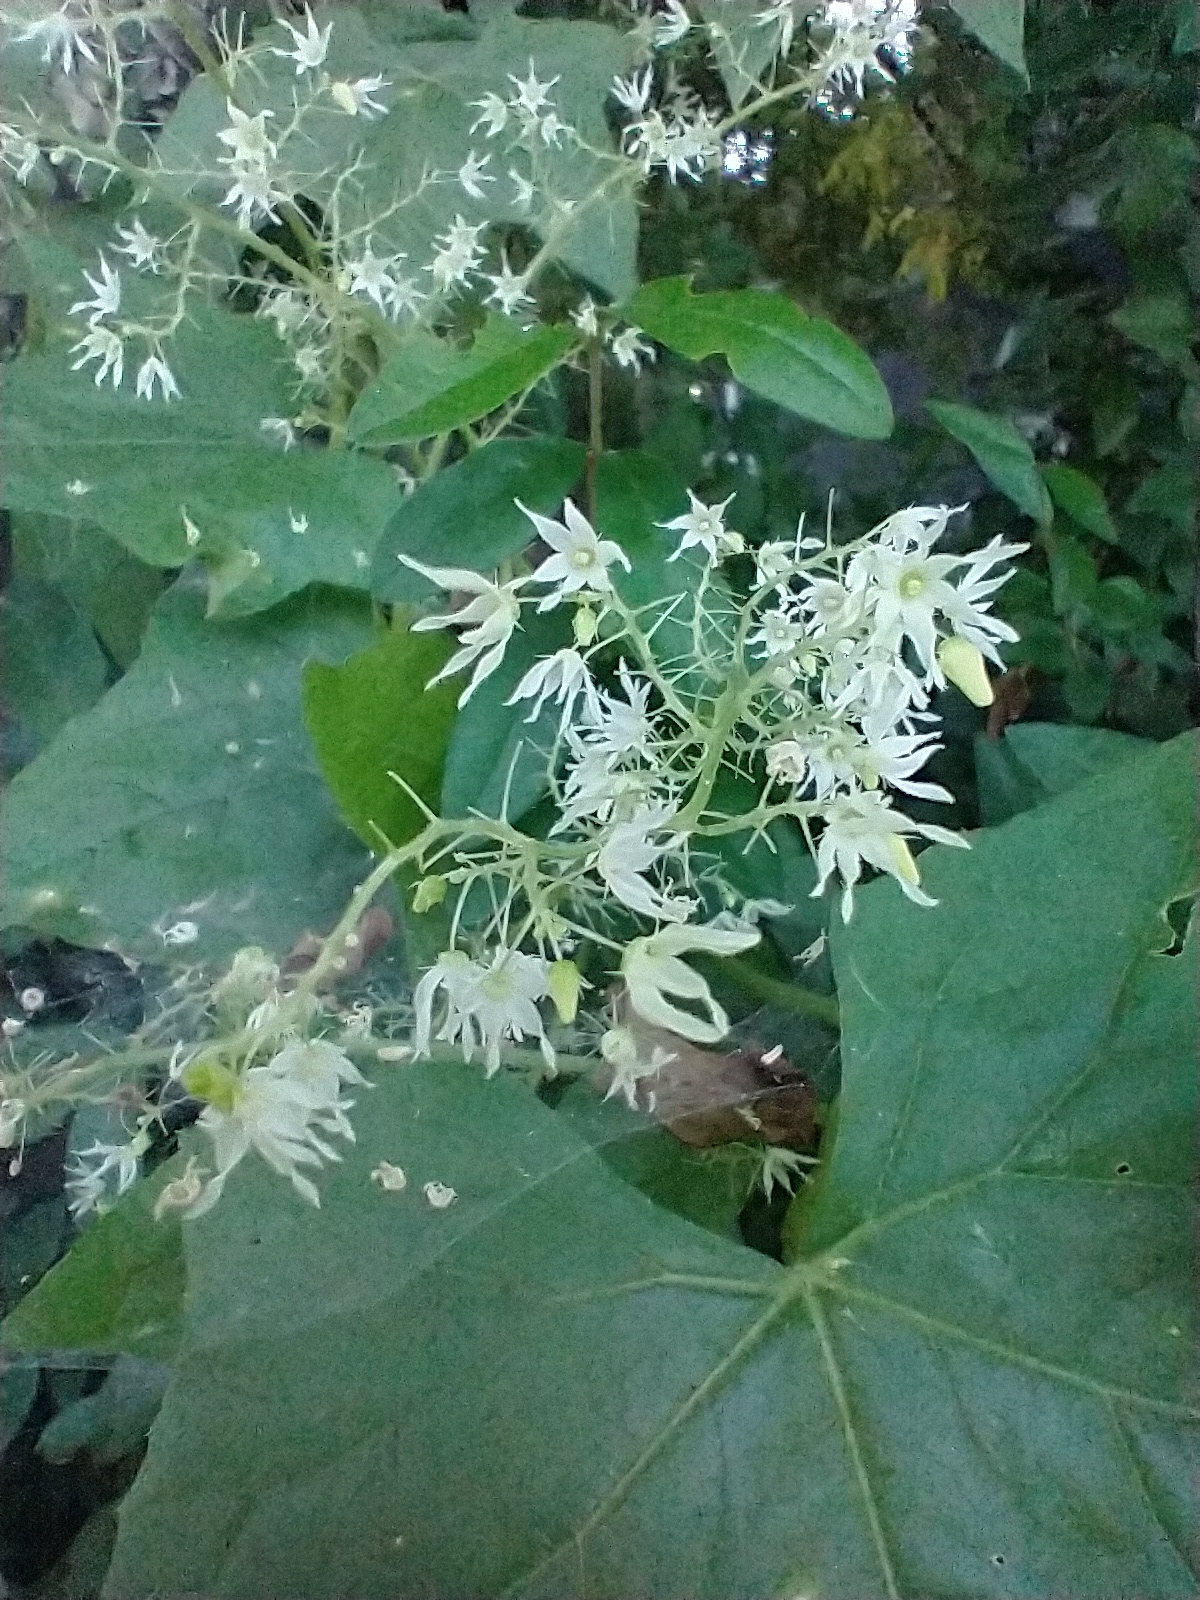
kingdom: Plantae
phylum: Tracheophyta
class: Magnoliopsida
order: Cucurbitales
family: Cucurbitaceae
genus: Echinocystis
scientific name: Echinocystis lobata
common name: Wild cucumber
